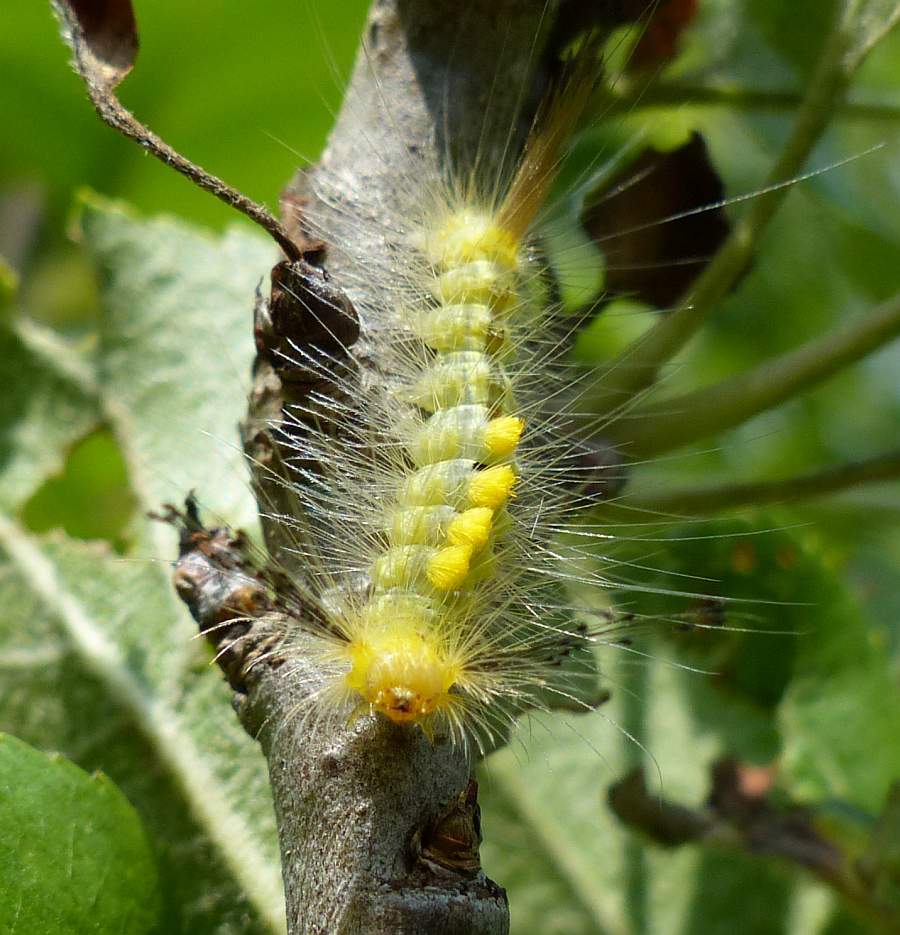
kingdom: Animalia
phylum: Arthropoda
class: Insecta
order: Lepidoptera
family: Erebidae
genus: Orgyia
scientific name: Orgyia definita
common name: Definite tussock moth
